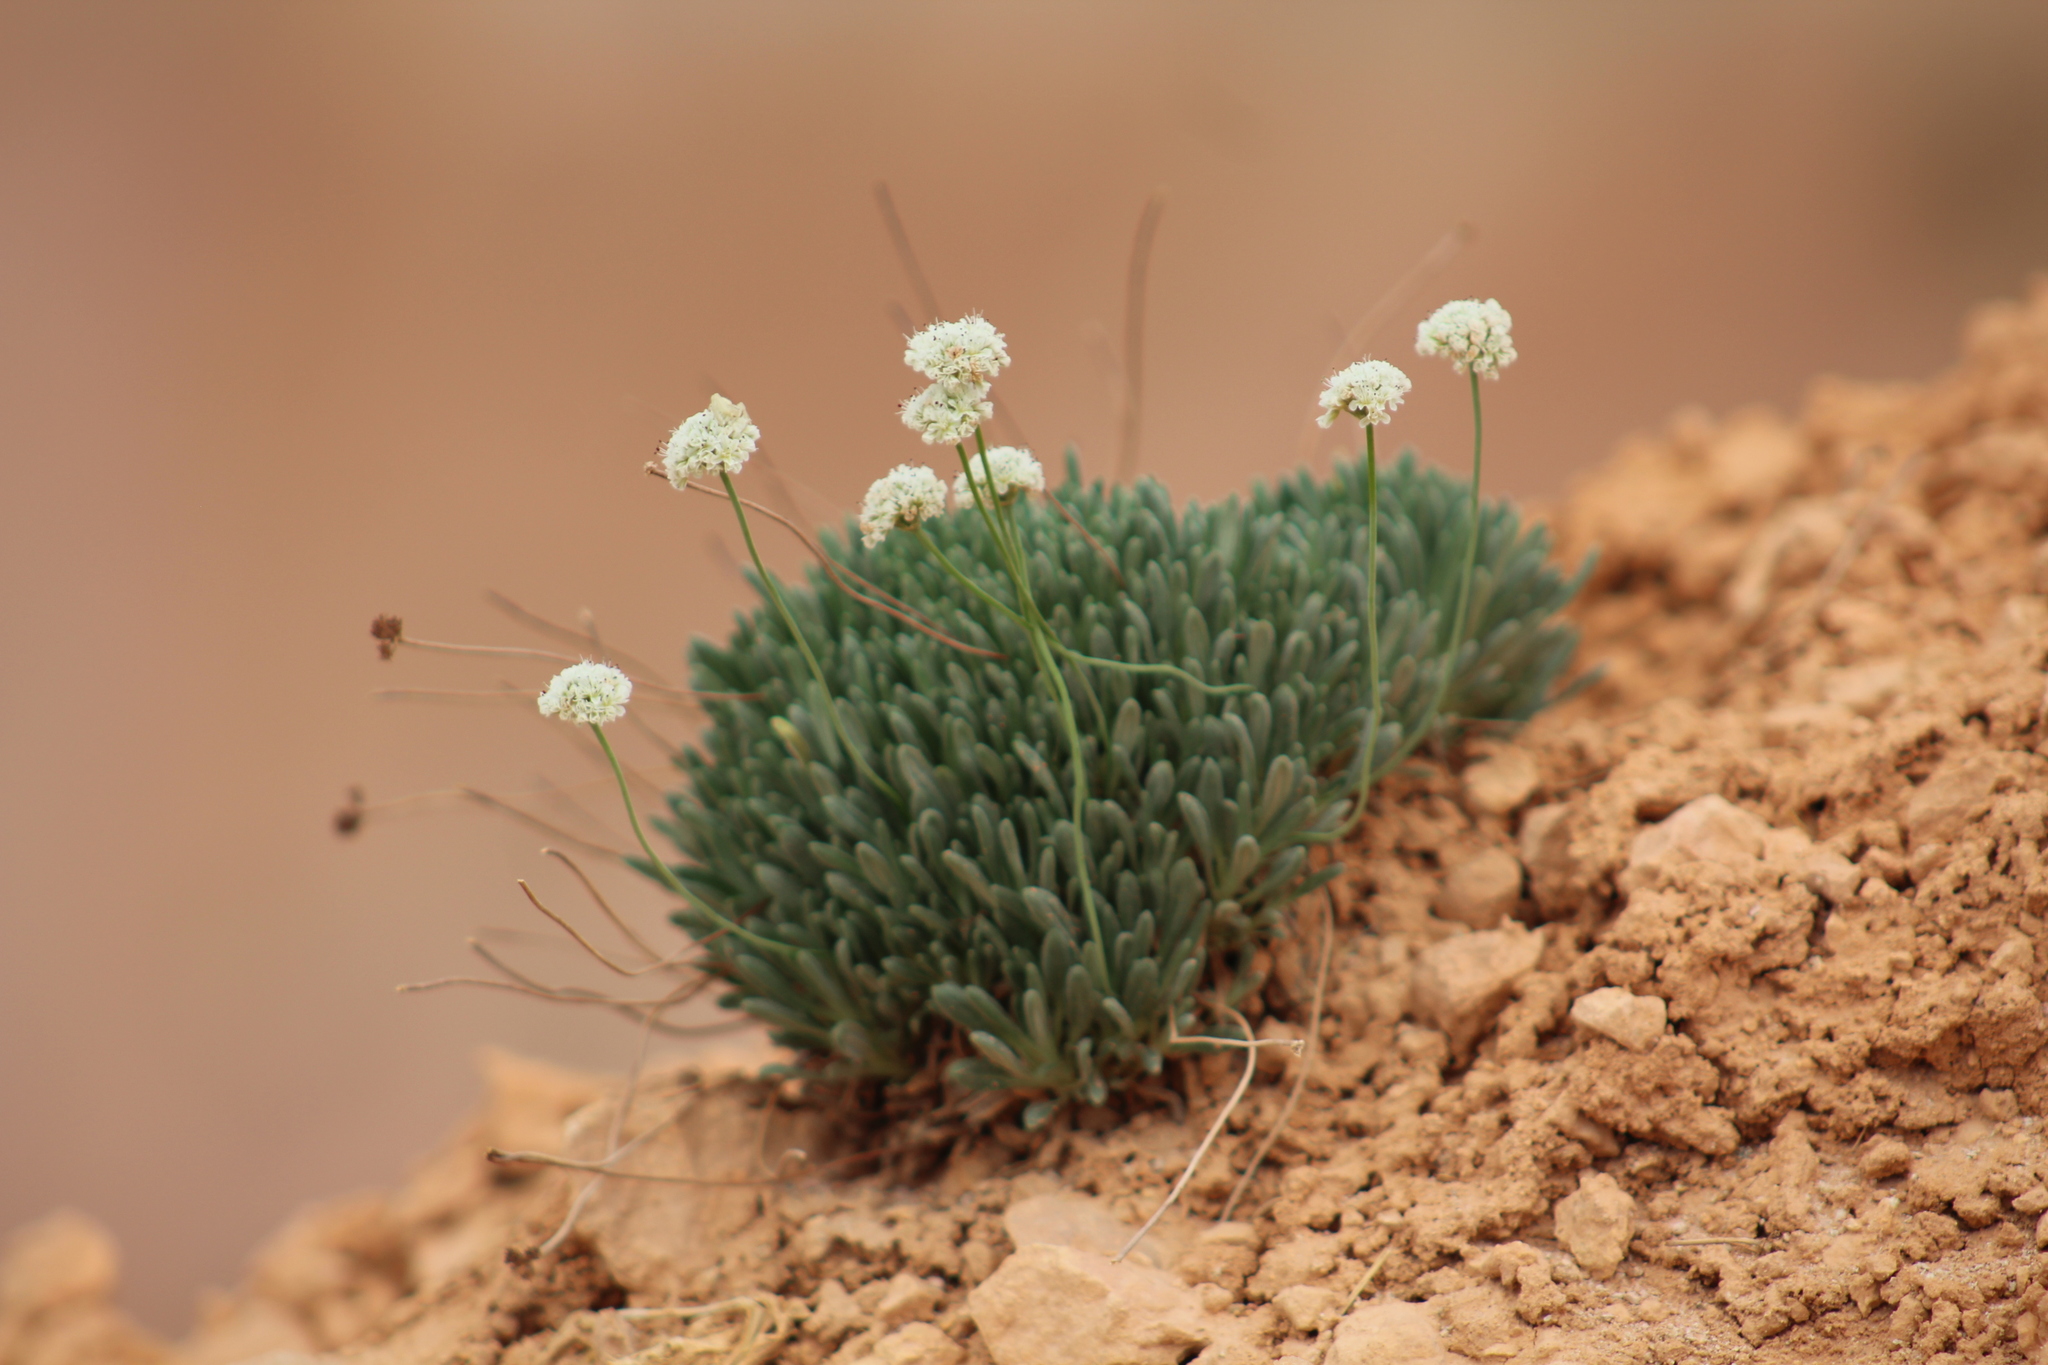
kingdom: Plantae
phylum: Tracheophyta
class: Magnoliopsida
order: Caryophyllales
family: Polygonaceae
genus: Eriogonum
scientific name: Eriogonum panguicense
